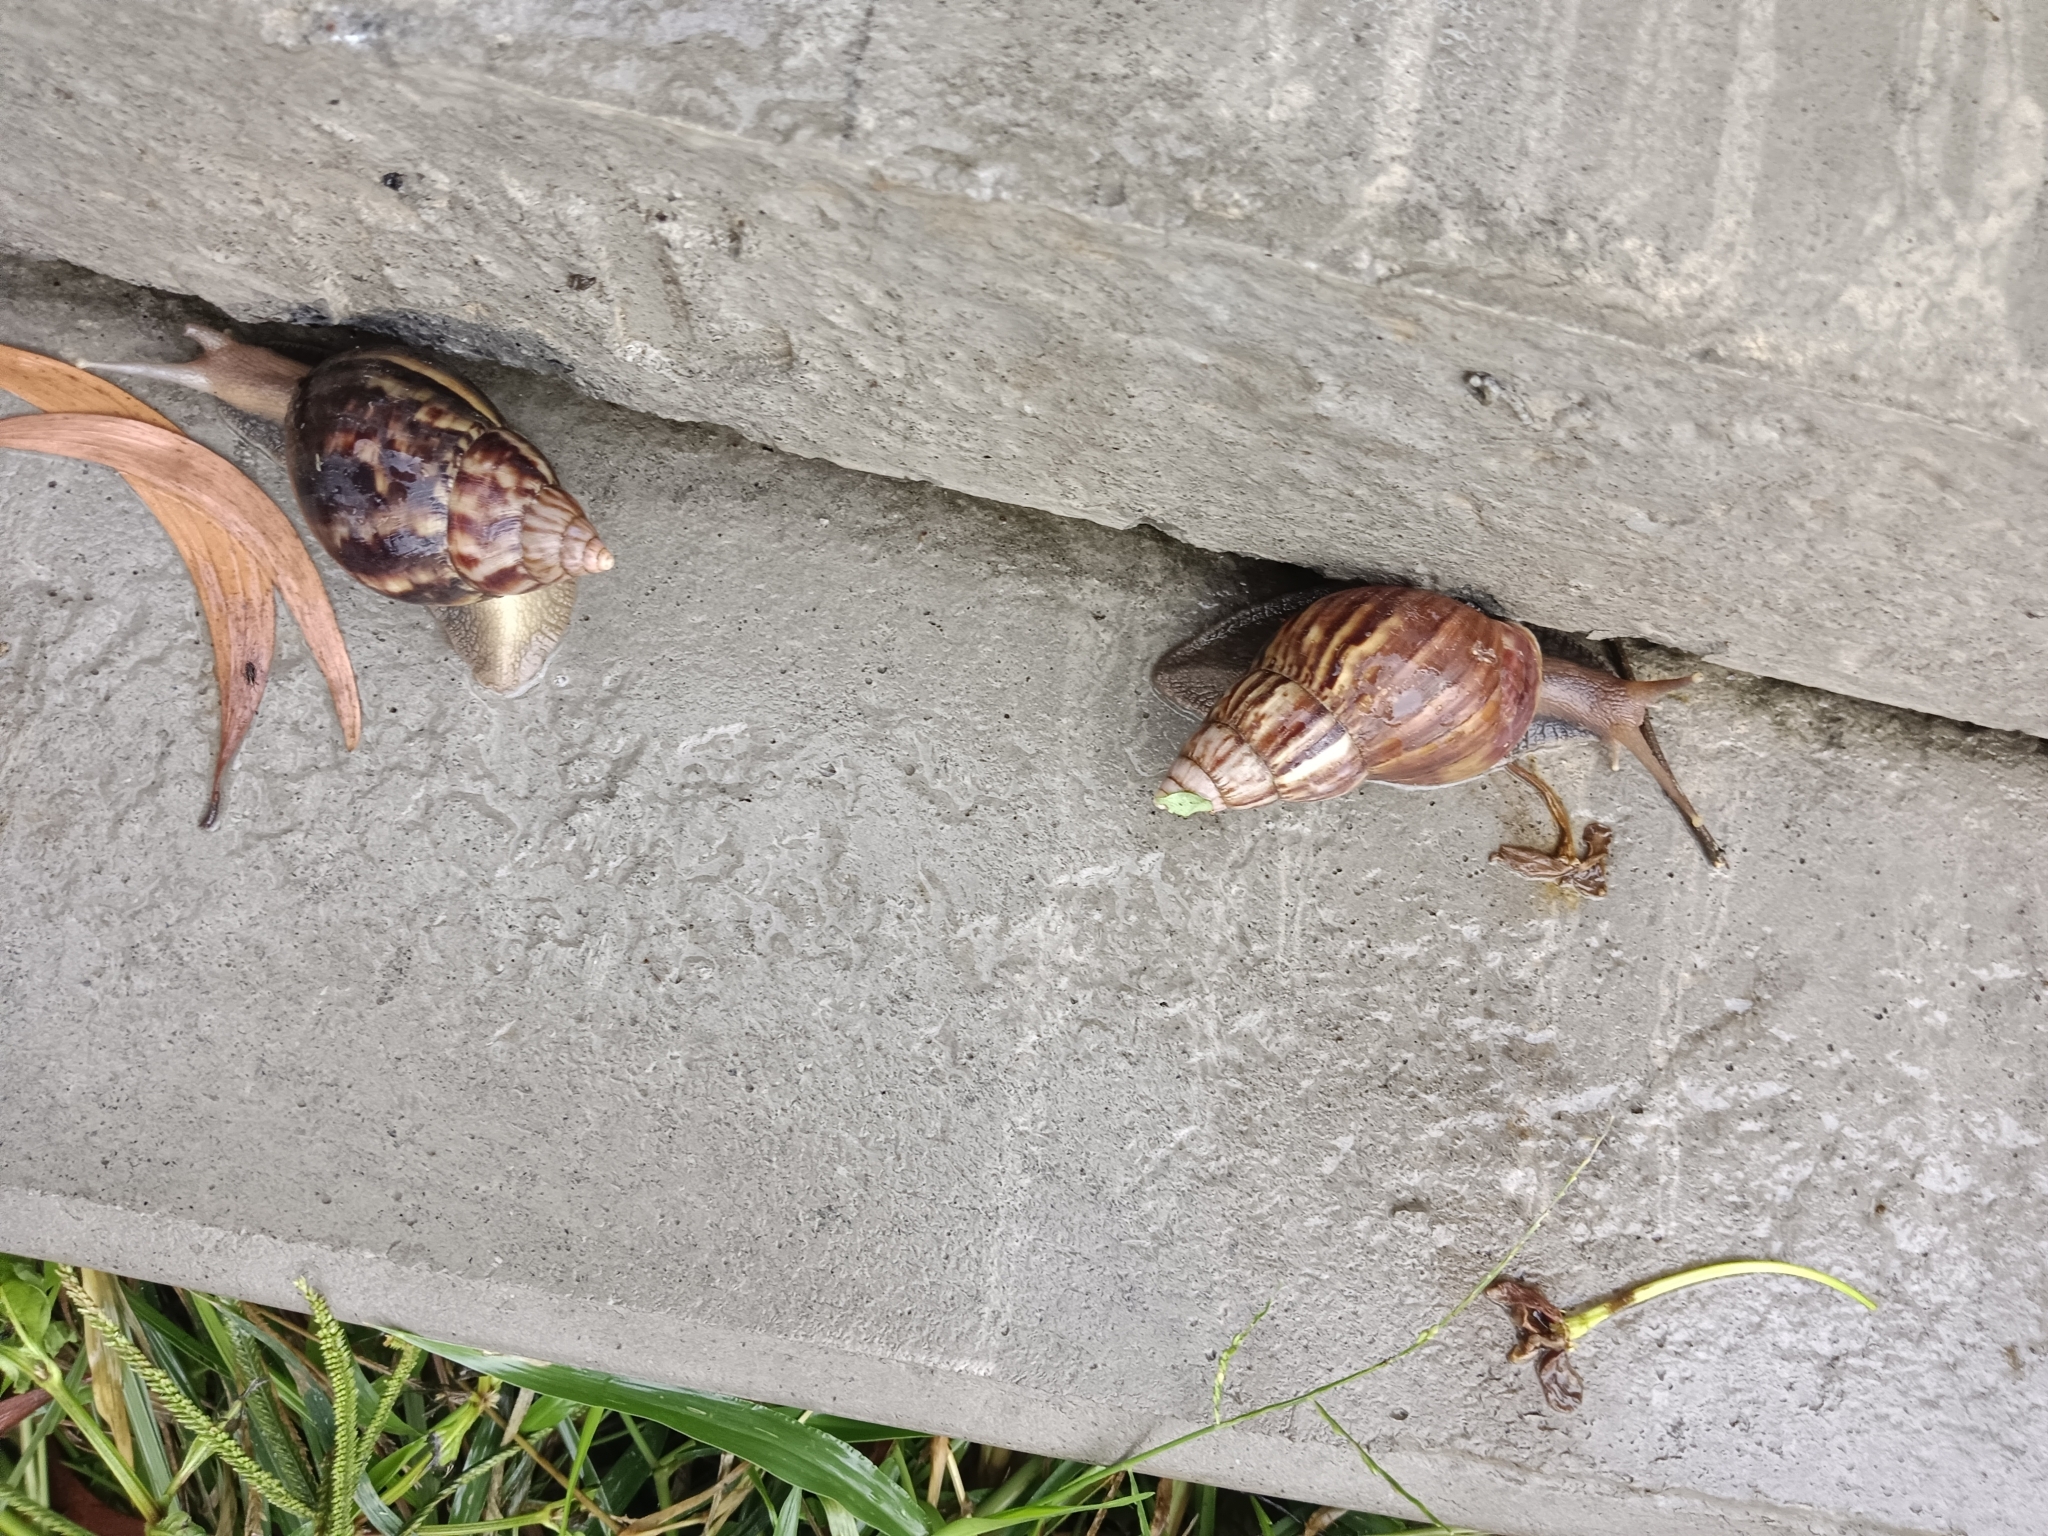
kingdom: Animalia
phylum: Mollusca
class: Gastropoda
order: Stylommatophora
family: Achatinidae
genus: Lissachatina
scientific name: Lissachatina fulica
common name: Giant african snail
